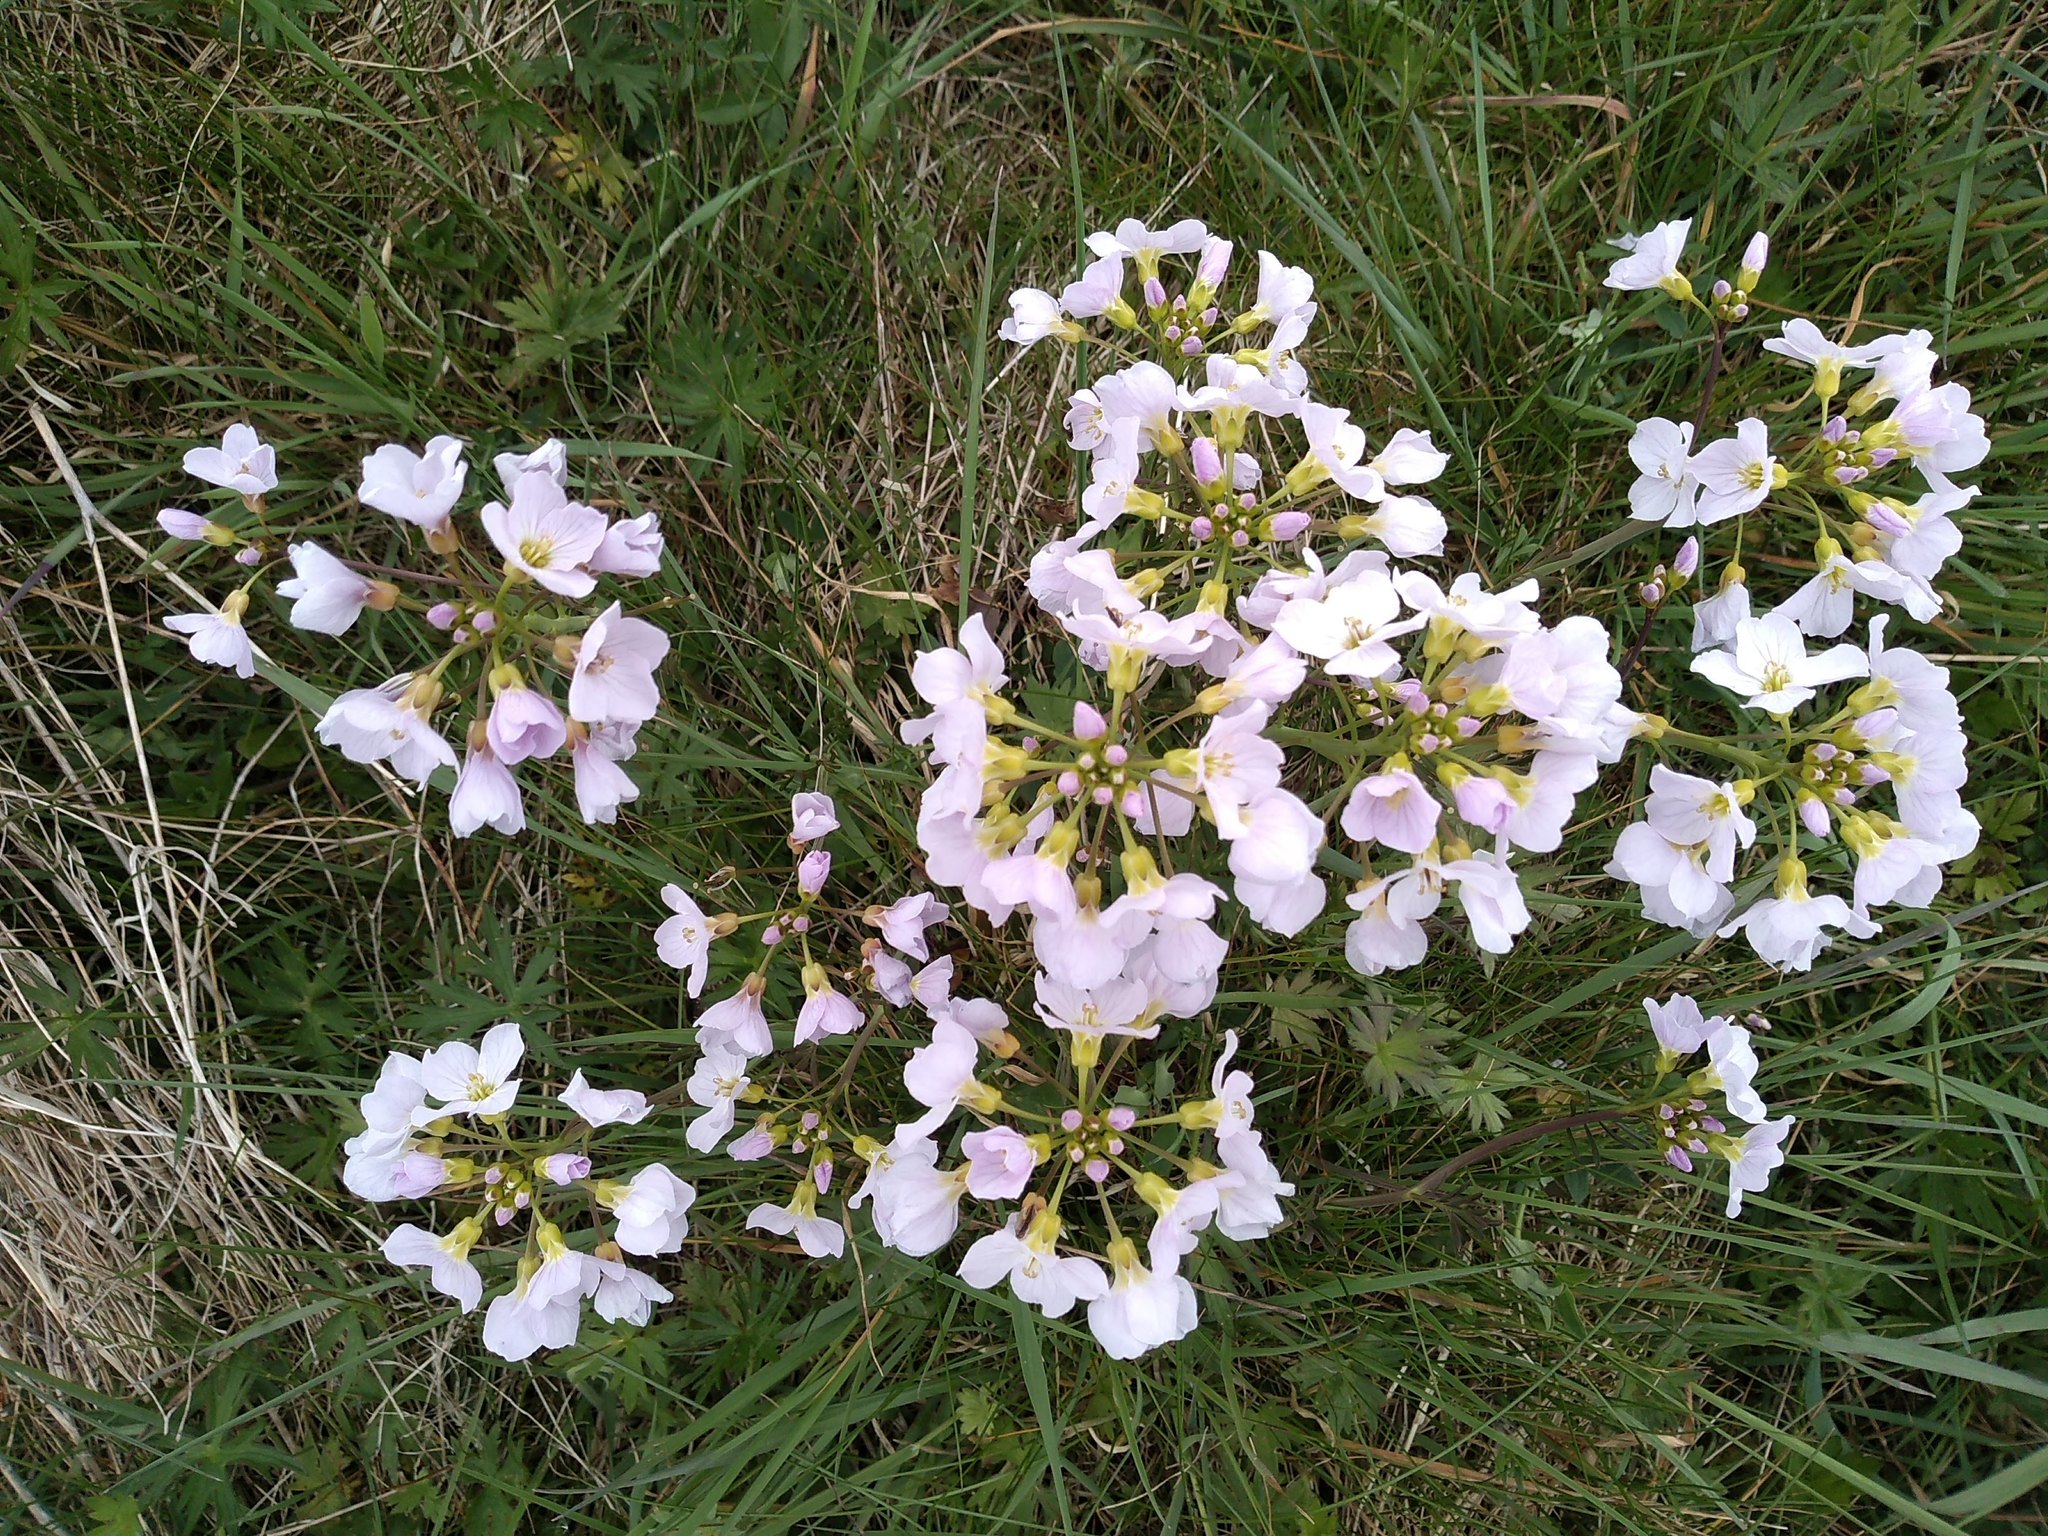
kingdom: Plantae
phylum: Tracheophyta
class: Magnoliopsida
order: Brassicales
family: Brassicaceae
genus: Cardamine
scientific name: Cardamine pratensis
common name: Cuckoo flower
